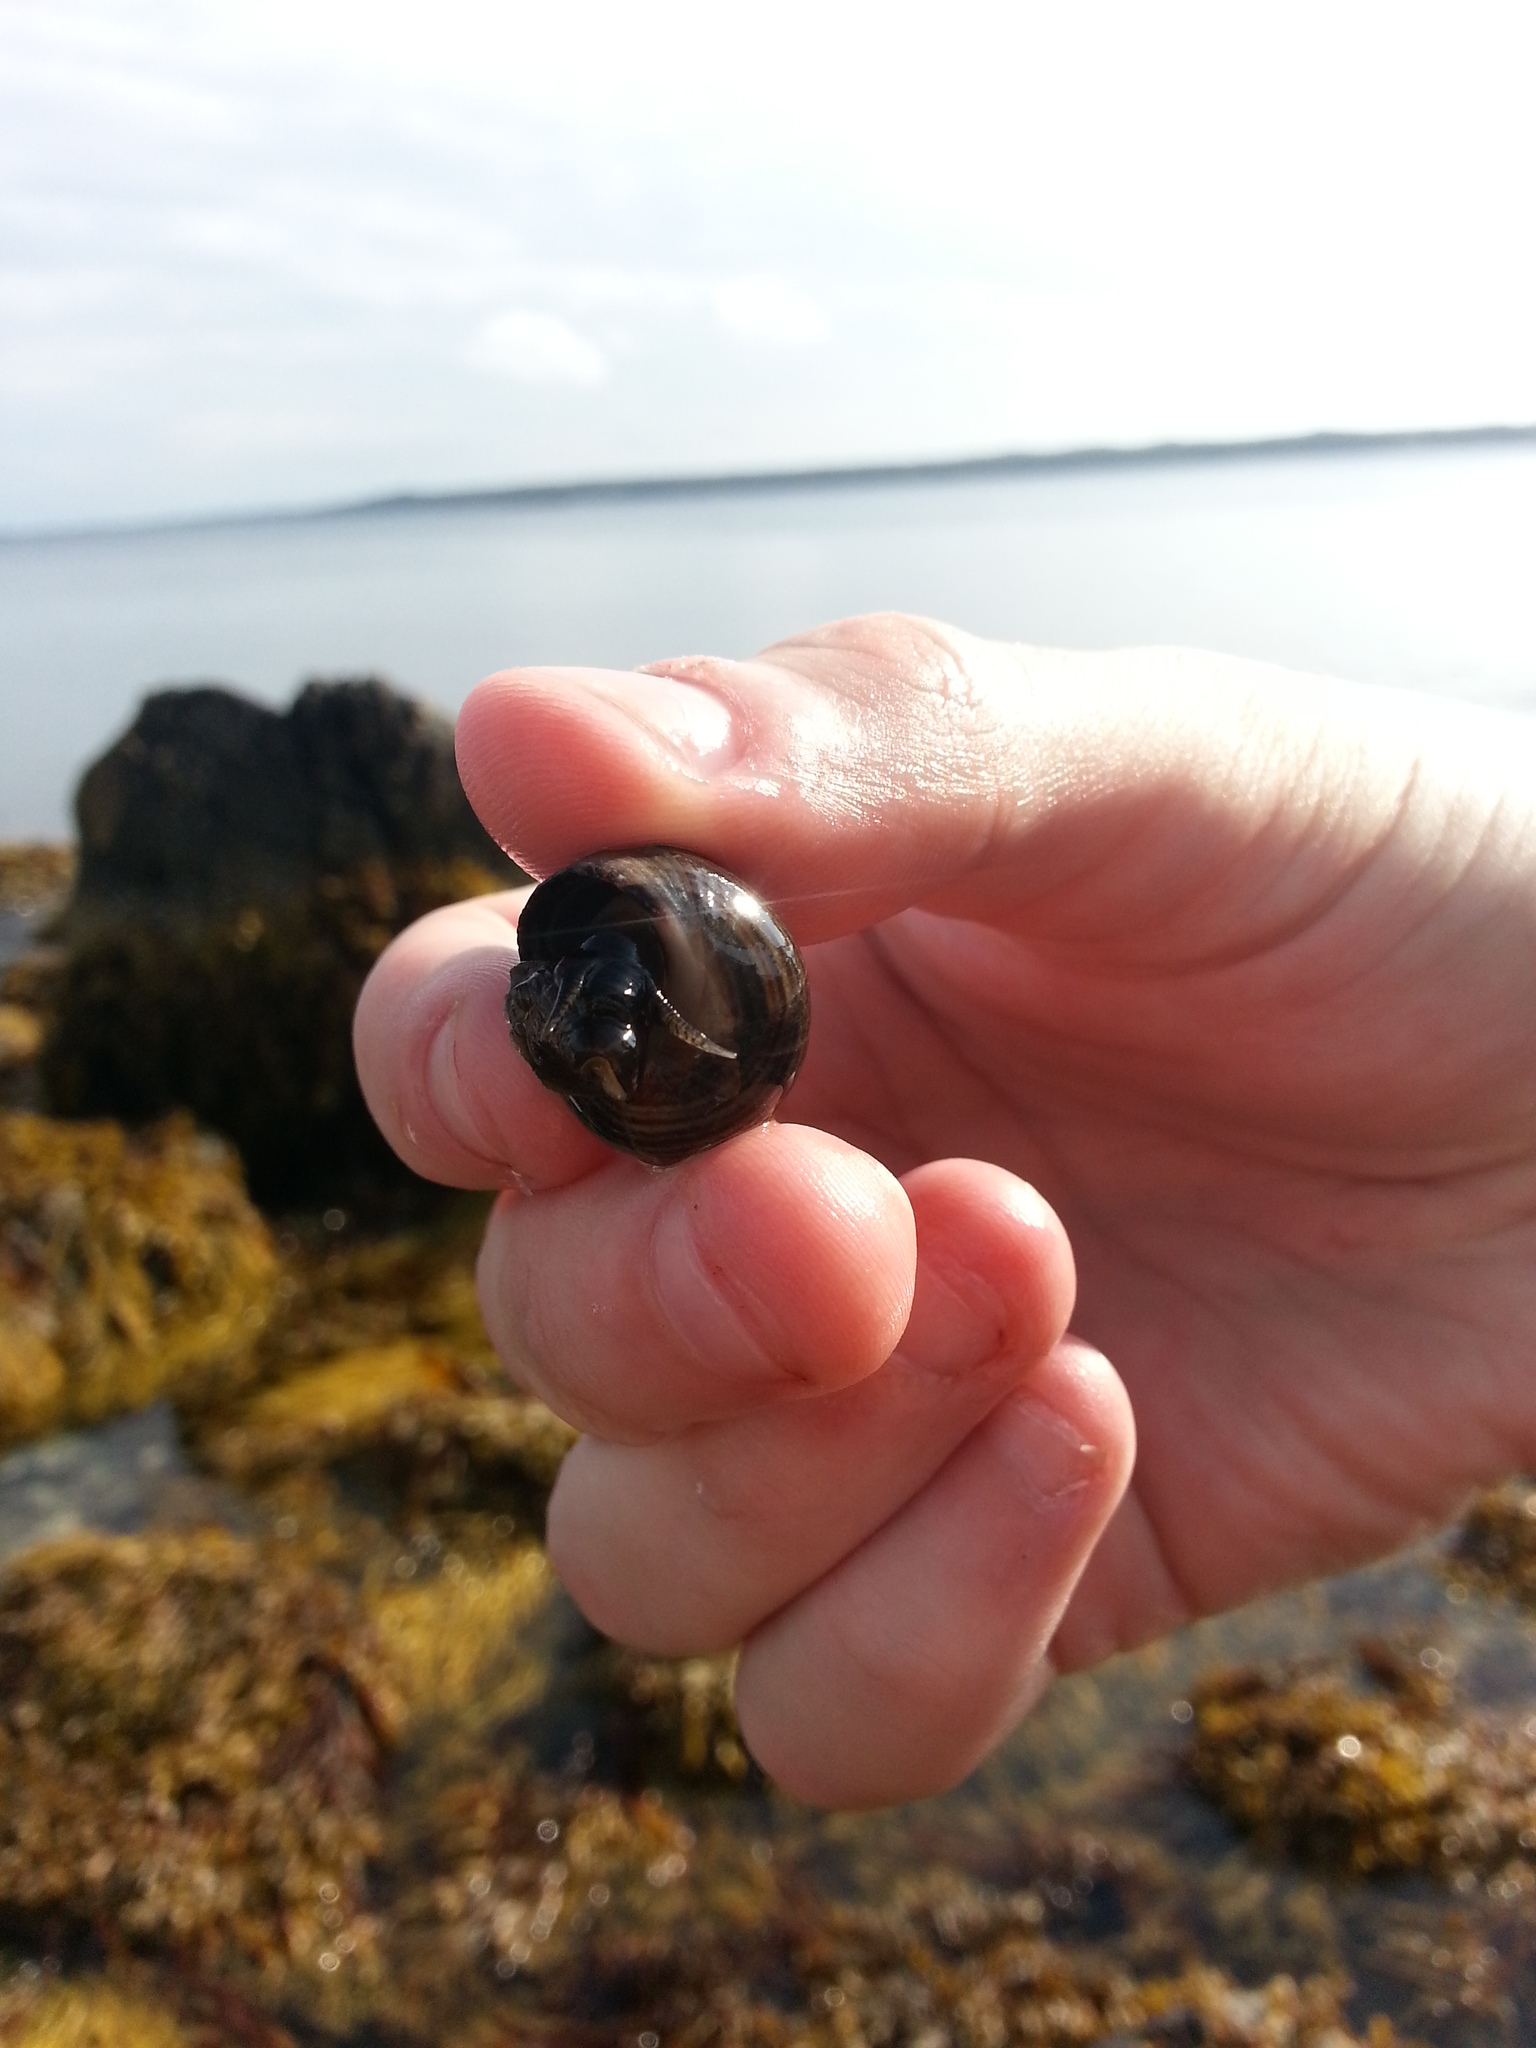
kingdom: Animalia
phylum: Mollusca
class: Gastropoda
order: Littorinimorpha
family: Littorinidae
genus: Littorina
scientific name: Littorina littorea
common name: Common periwinkle
